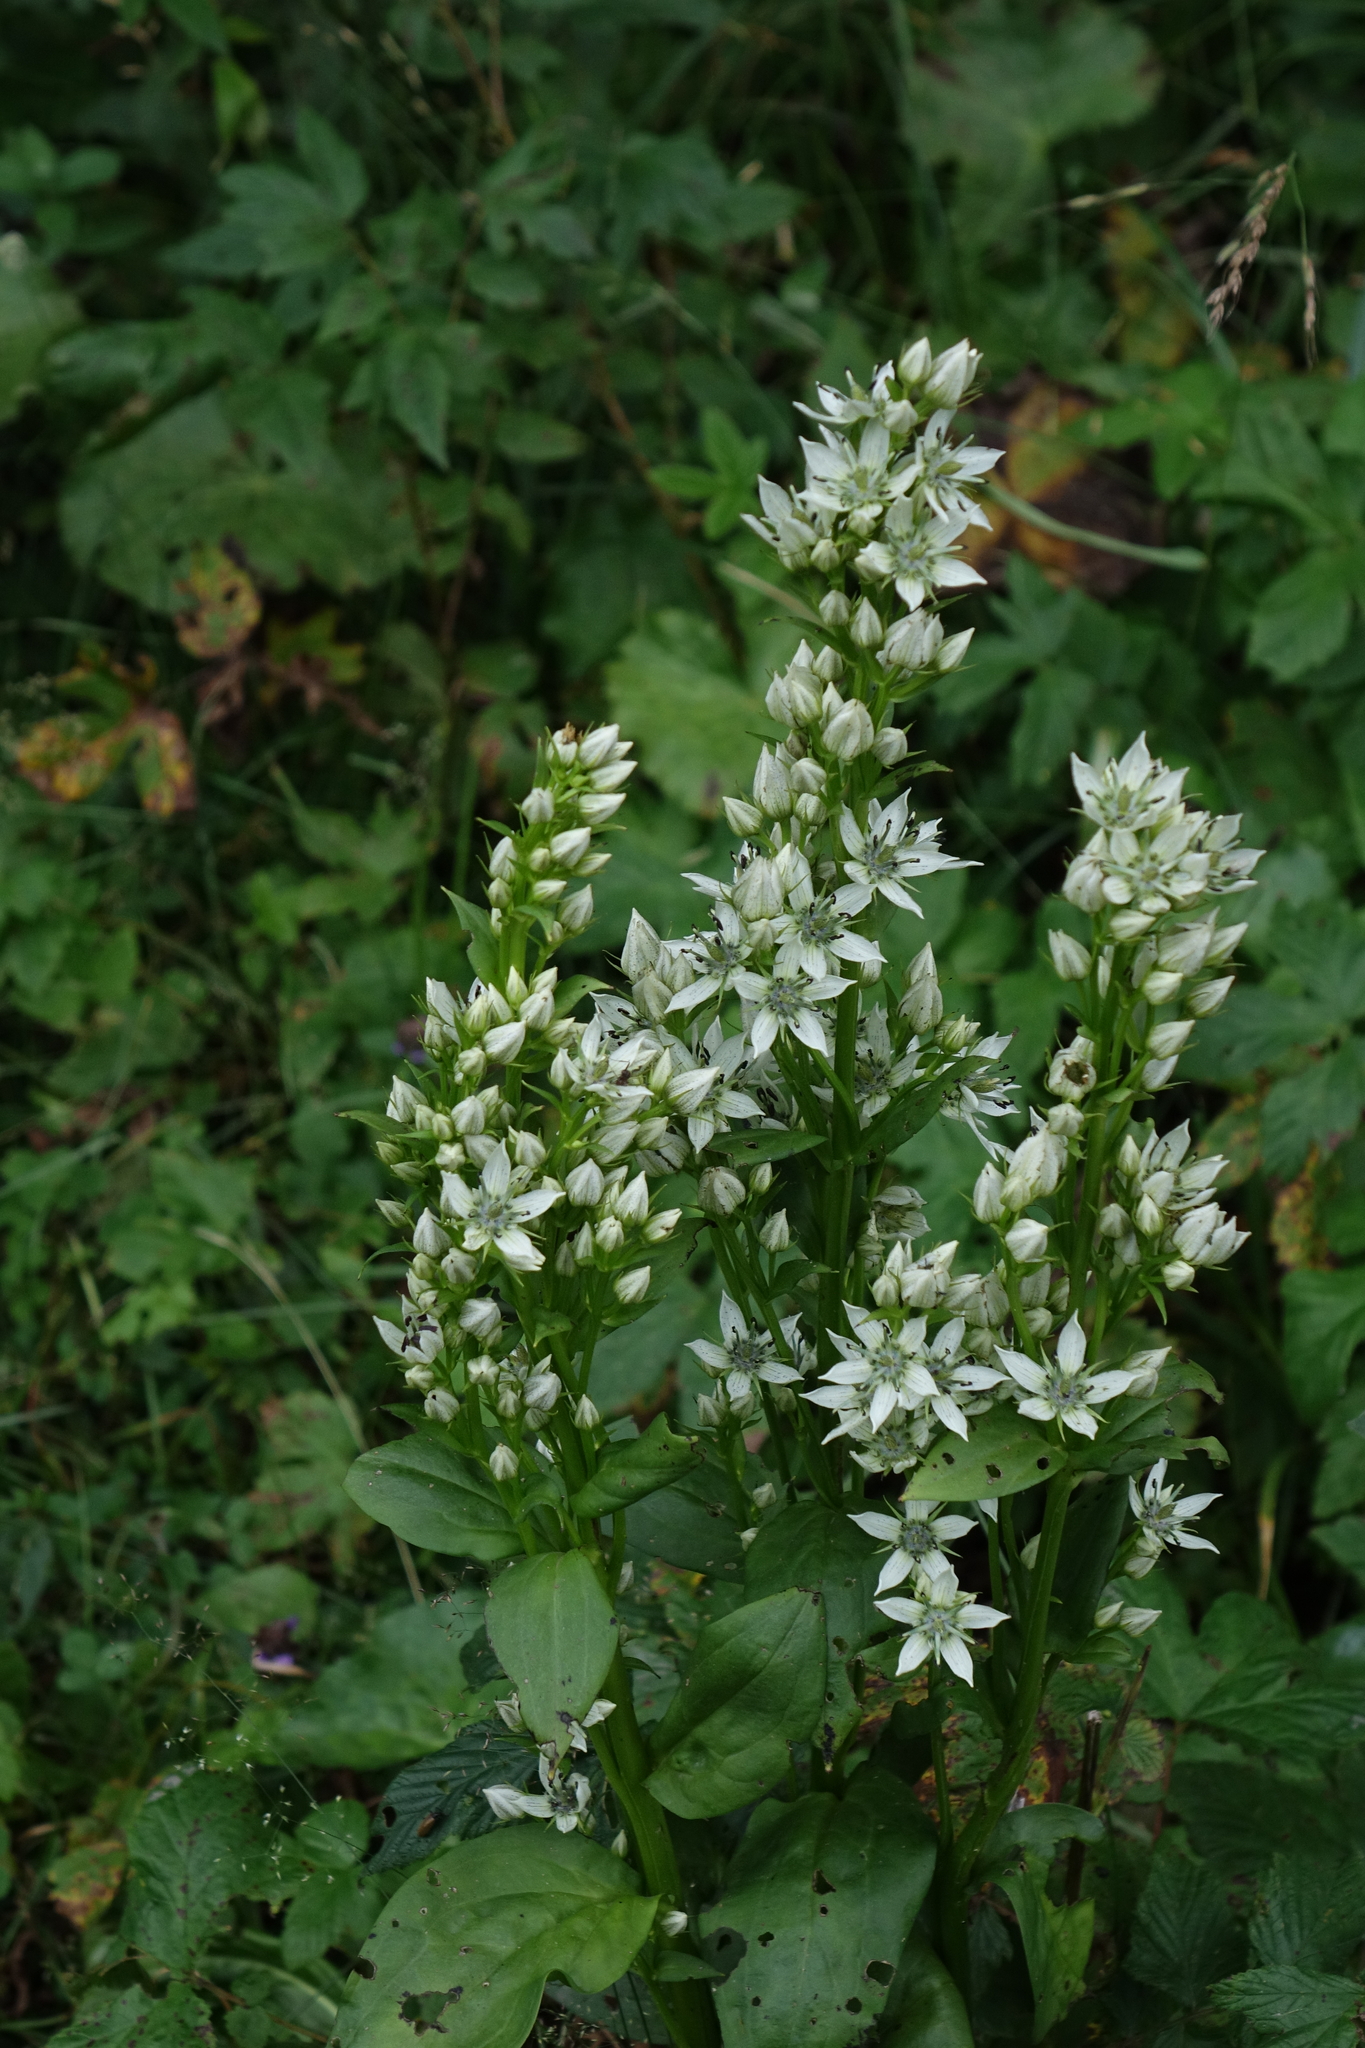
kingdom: Plantae
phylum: Tracheophyta
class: Magnoliopsida
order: Gentianales
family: Gentianaceae
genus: Swertia
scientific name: Swertia iberica
